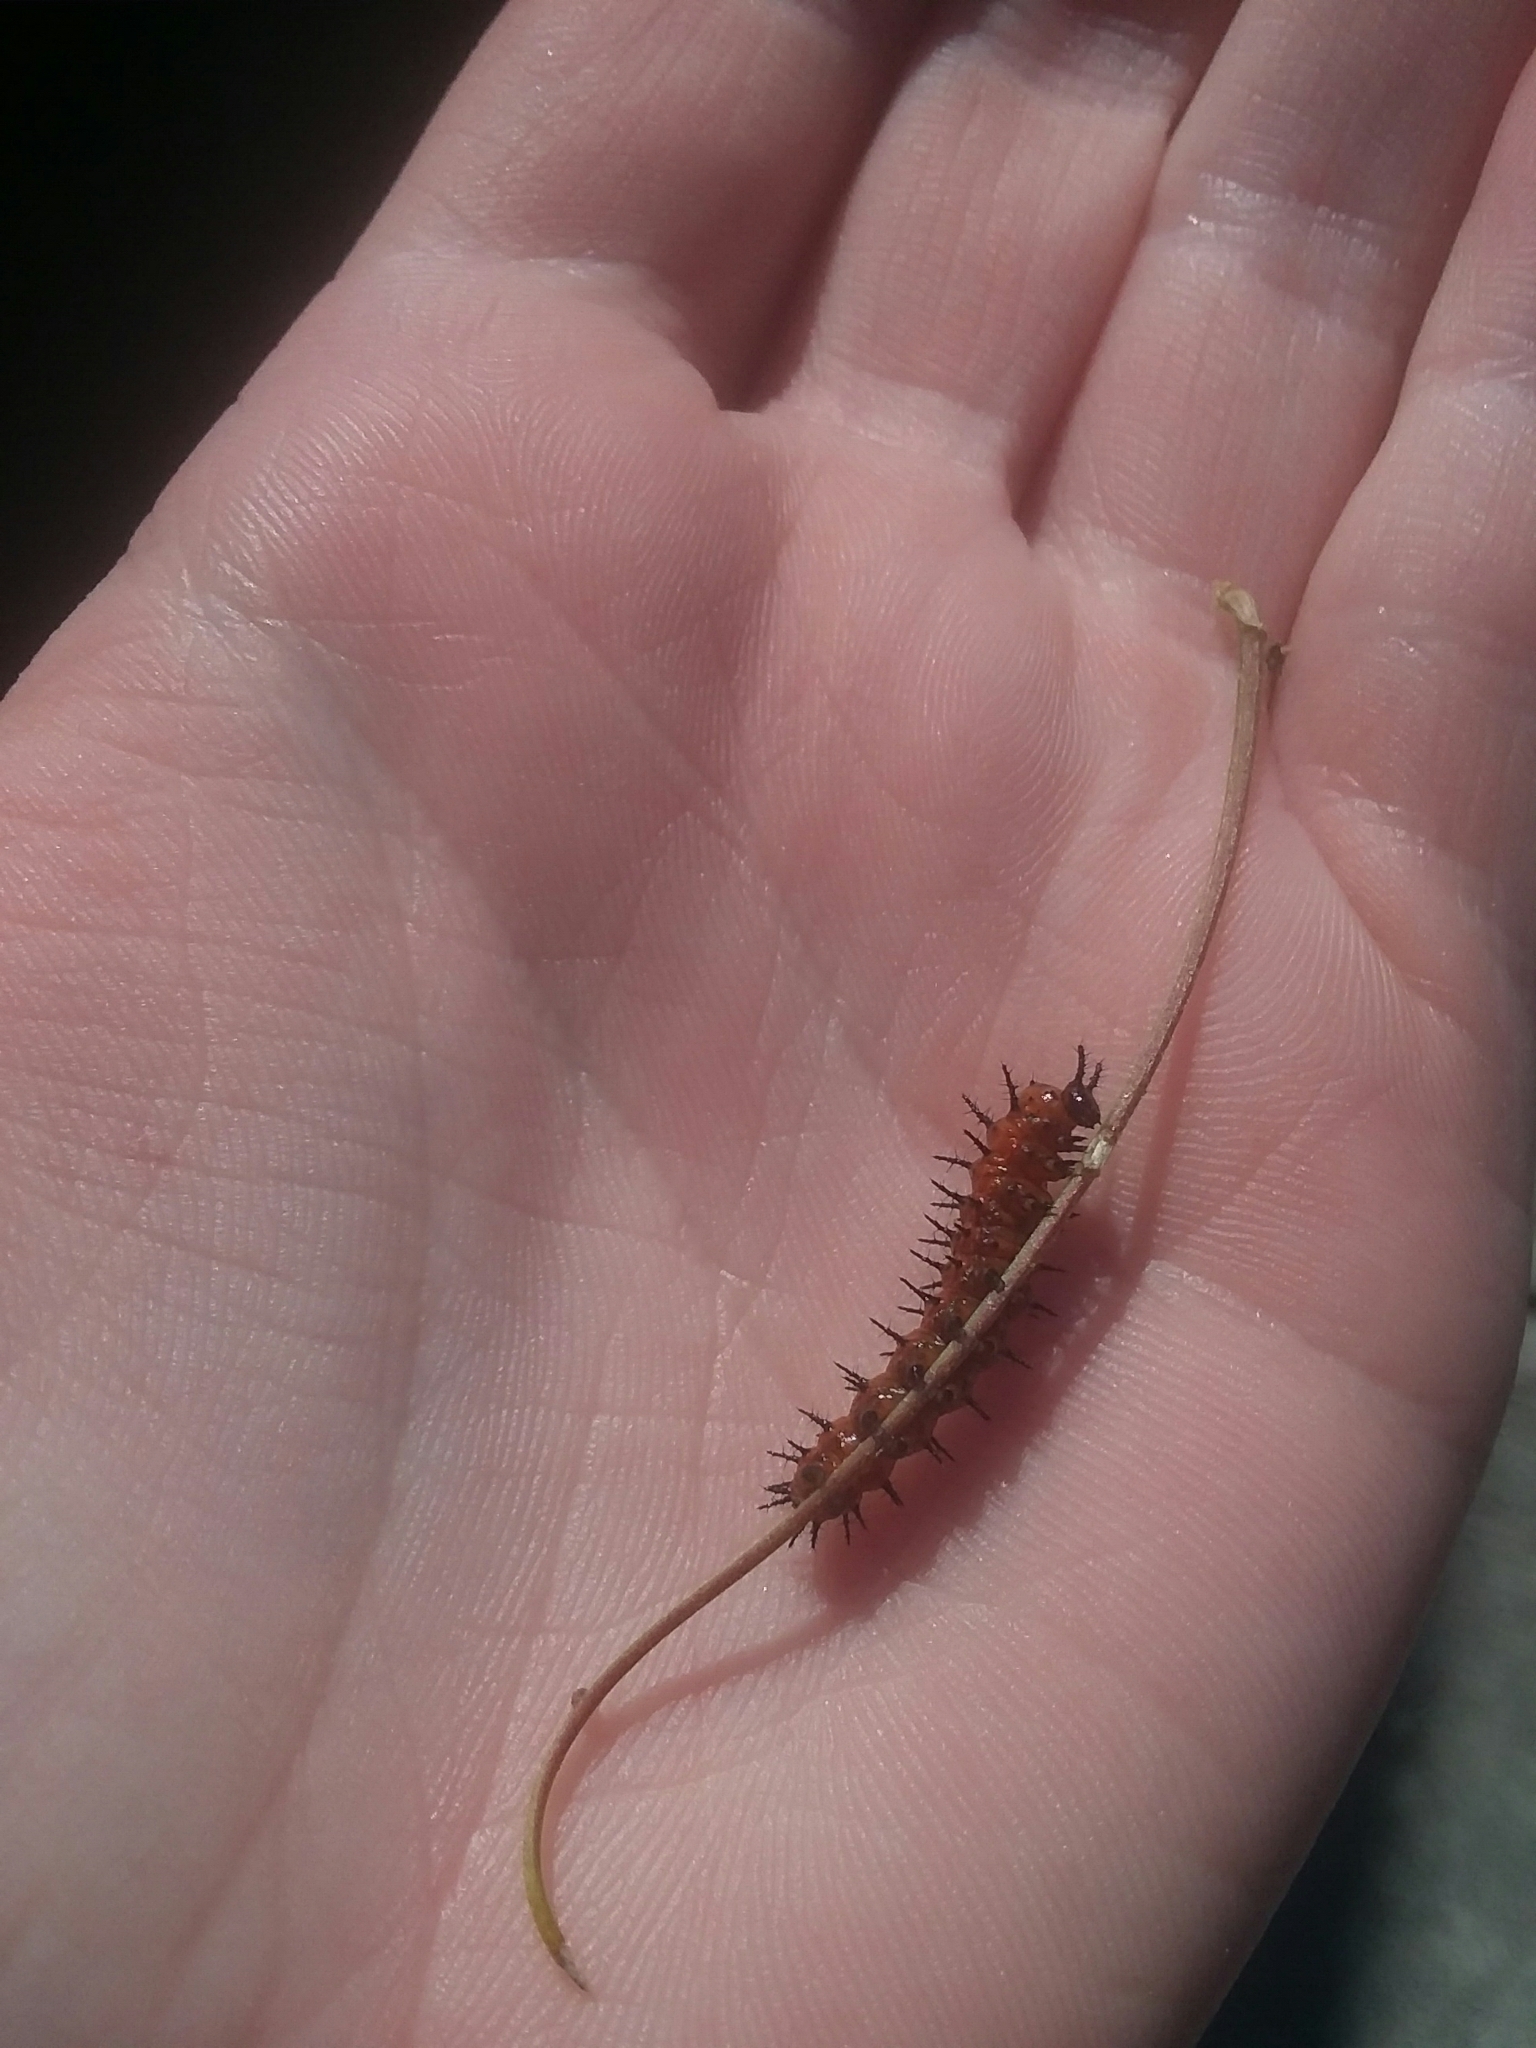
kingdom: Animalia
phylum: Arthropoda
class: Insecta
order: Lepidoptera
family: Nymphalidae
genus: Dione
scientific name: Dione vanillae
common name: Gulf fritillary
